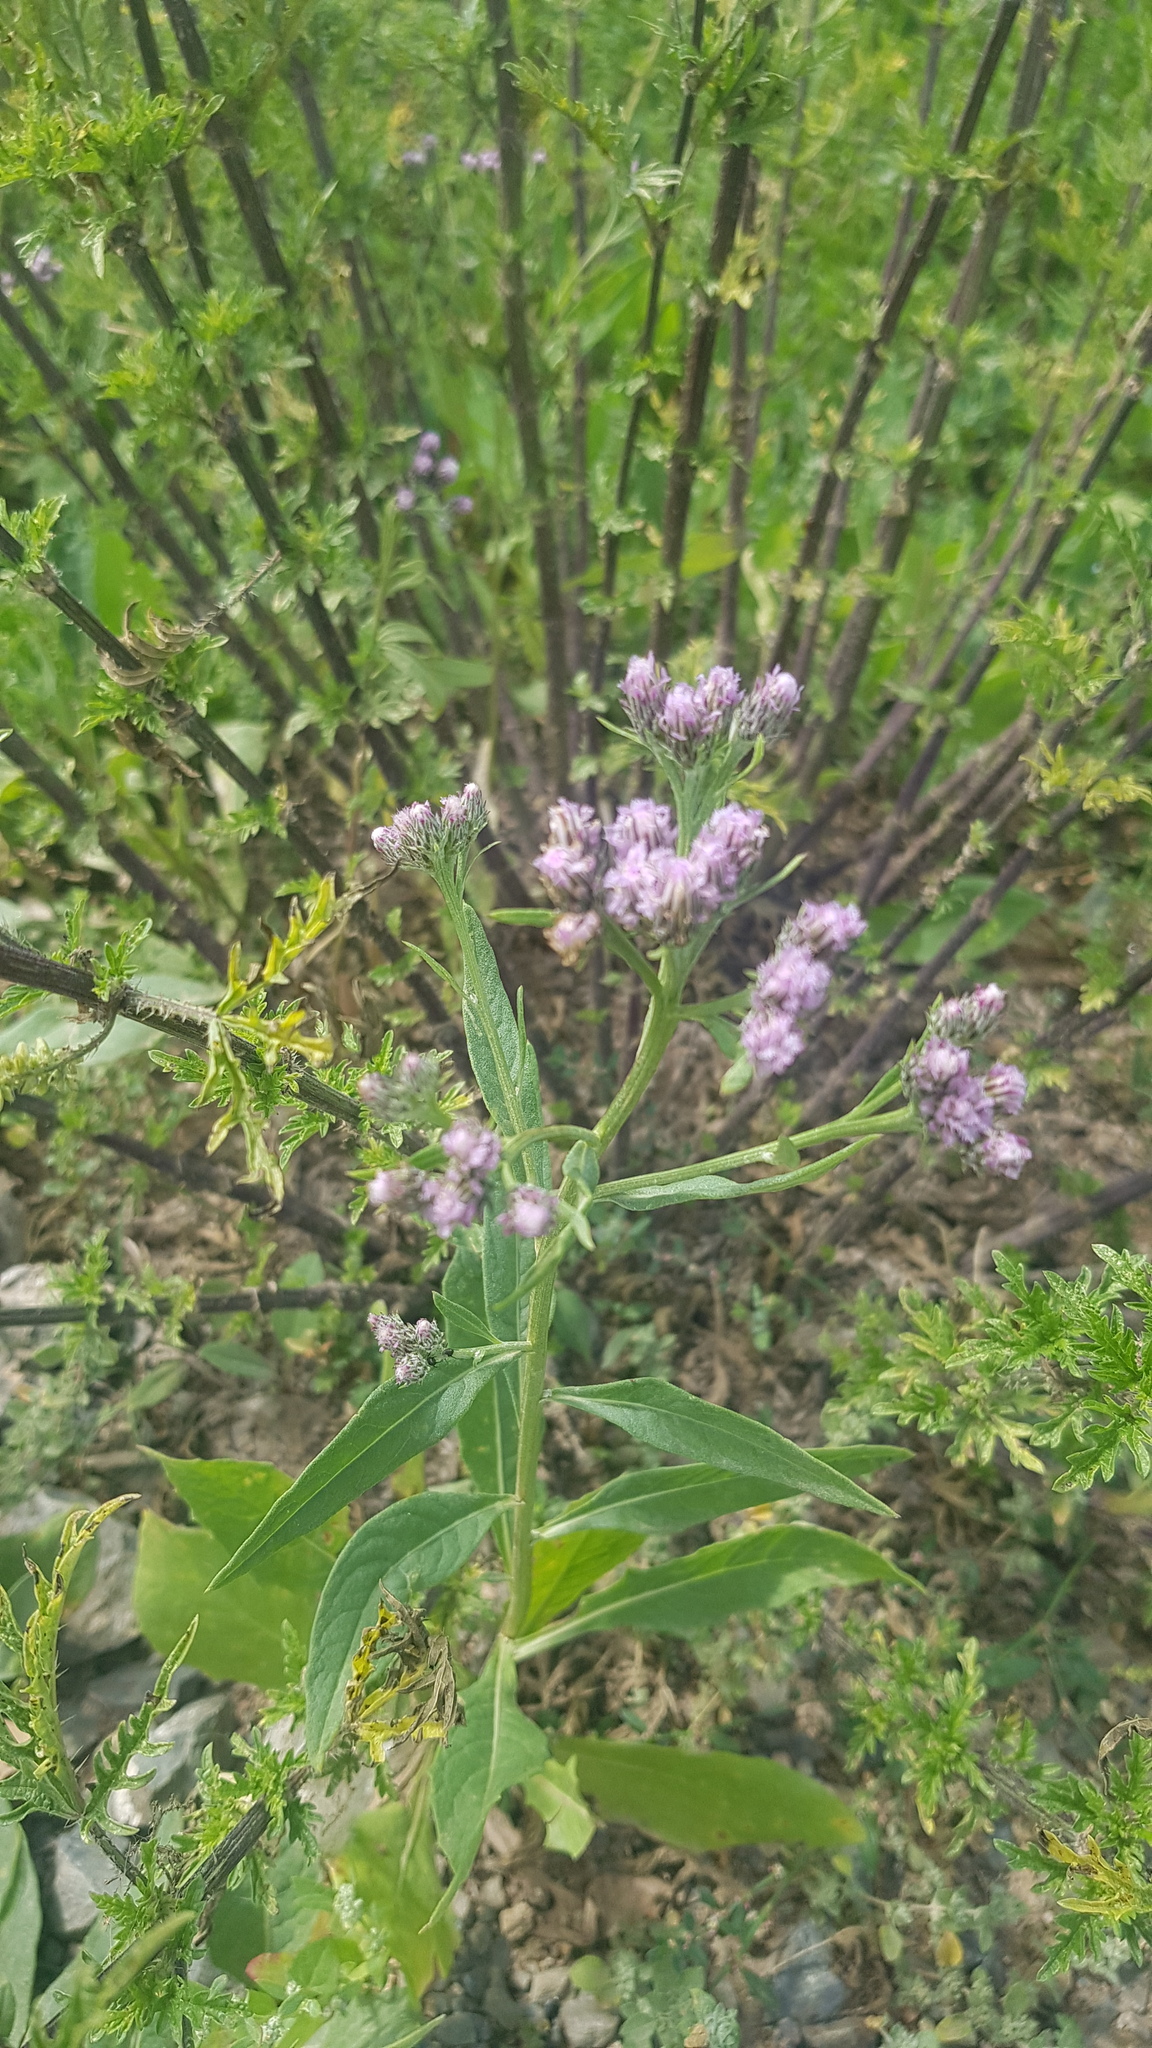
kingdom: Plantae
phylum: Tracheophyta
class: Magnoliopsida
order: Asterales
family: Asteraceae
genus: Saussurea
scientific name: Saussurea salicifolia
